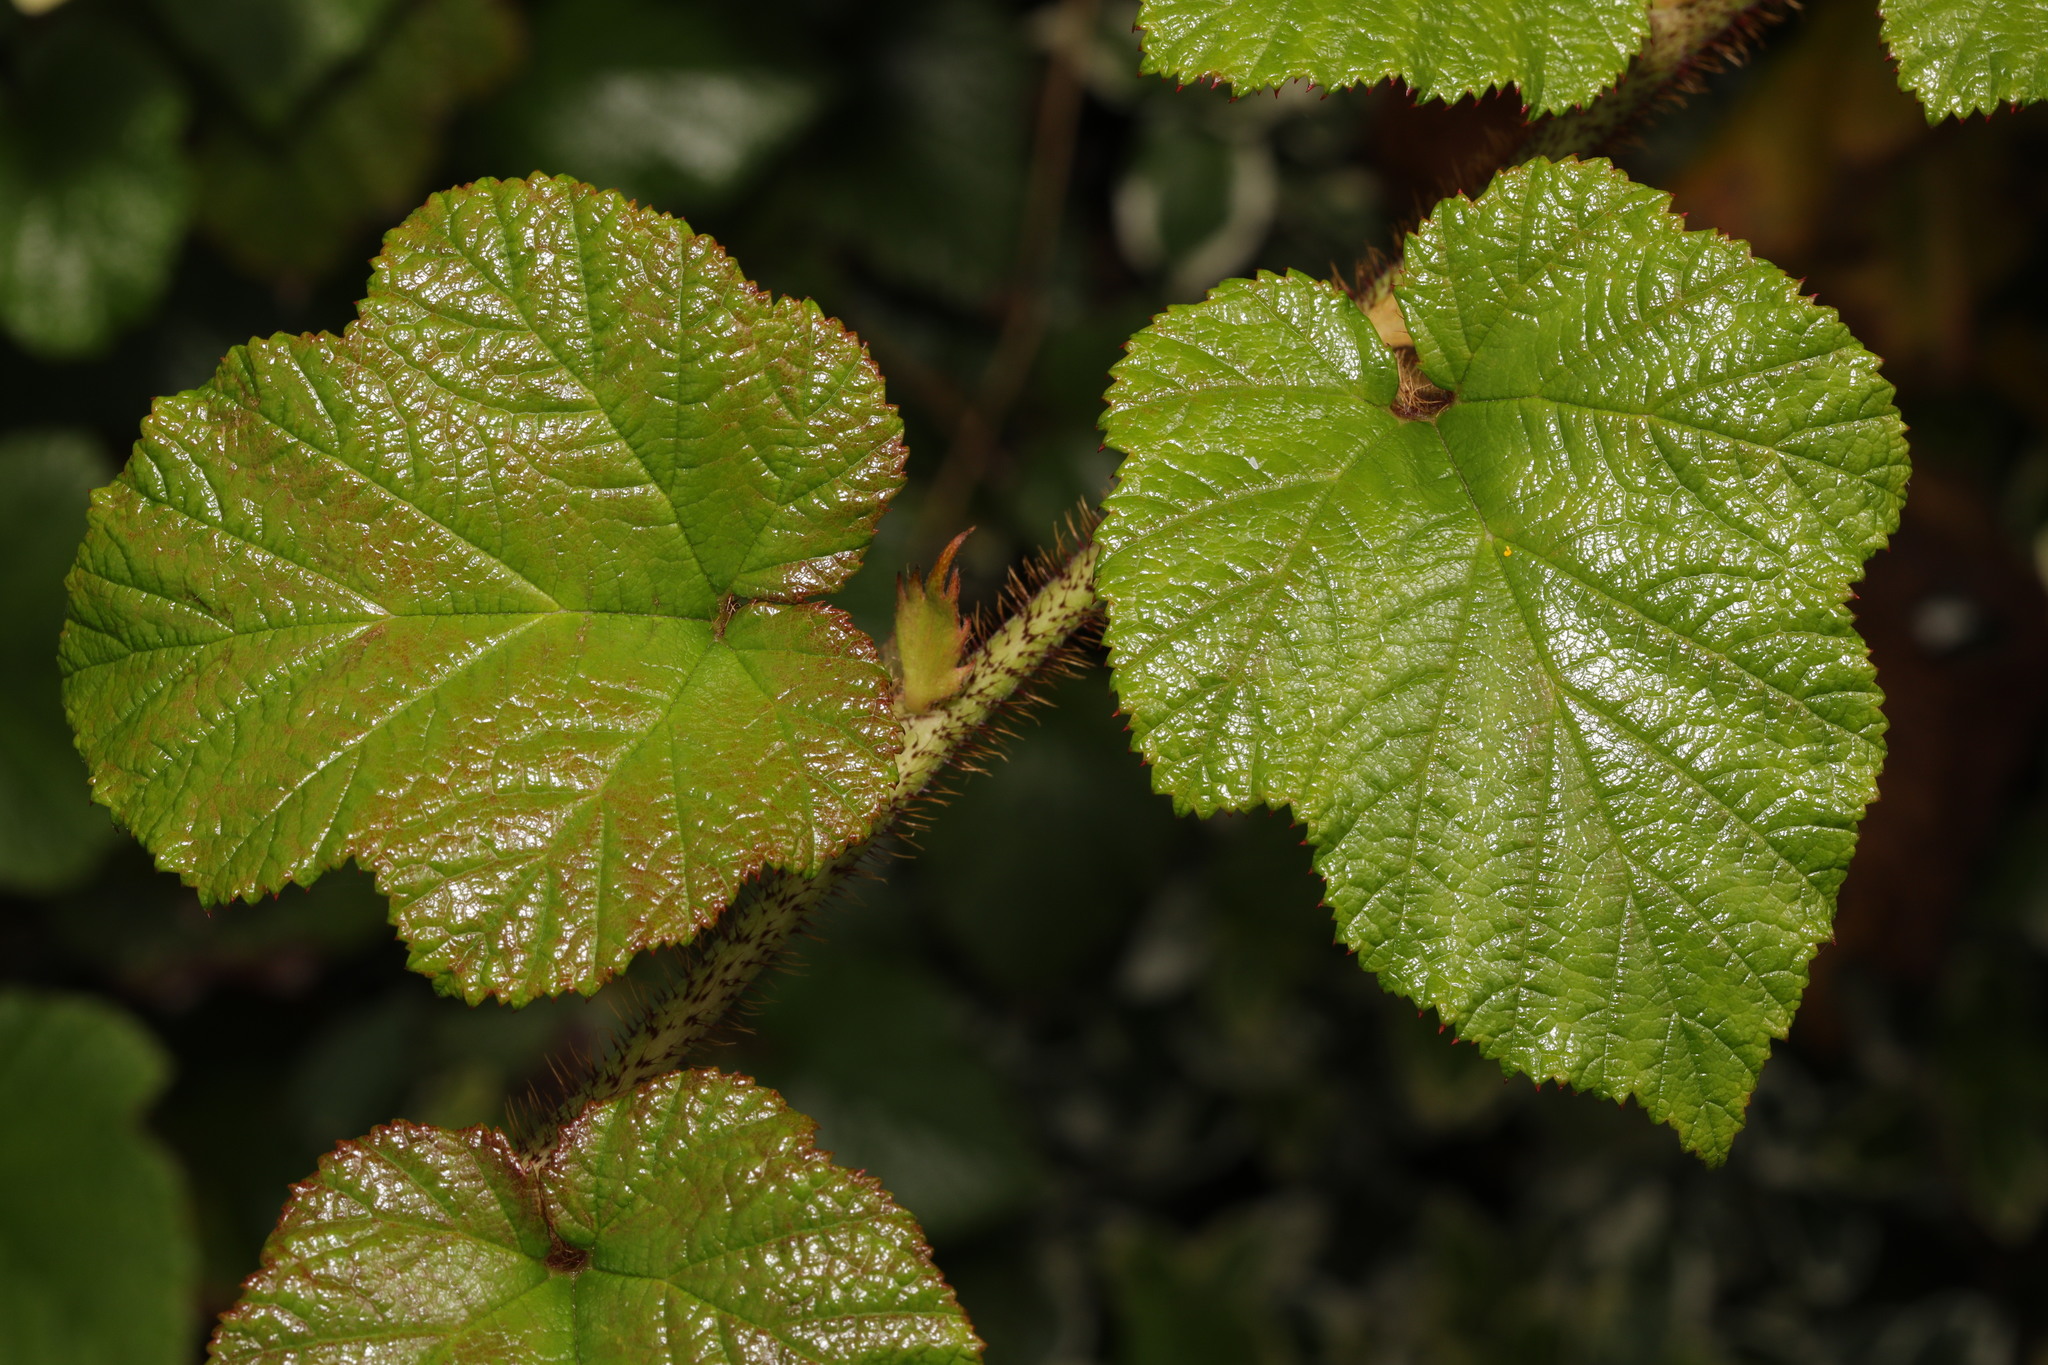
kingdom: Plantae
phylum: Tracheophyta
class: Magnoliopsida
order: Rosales
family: Rosaceae
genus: Rubus
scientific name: Rubus tricolor
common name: Chinese bramble
